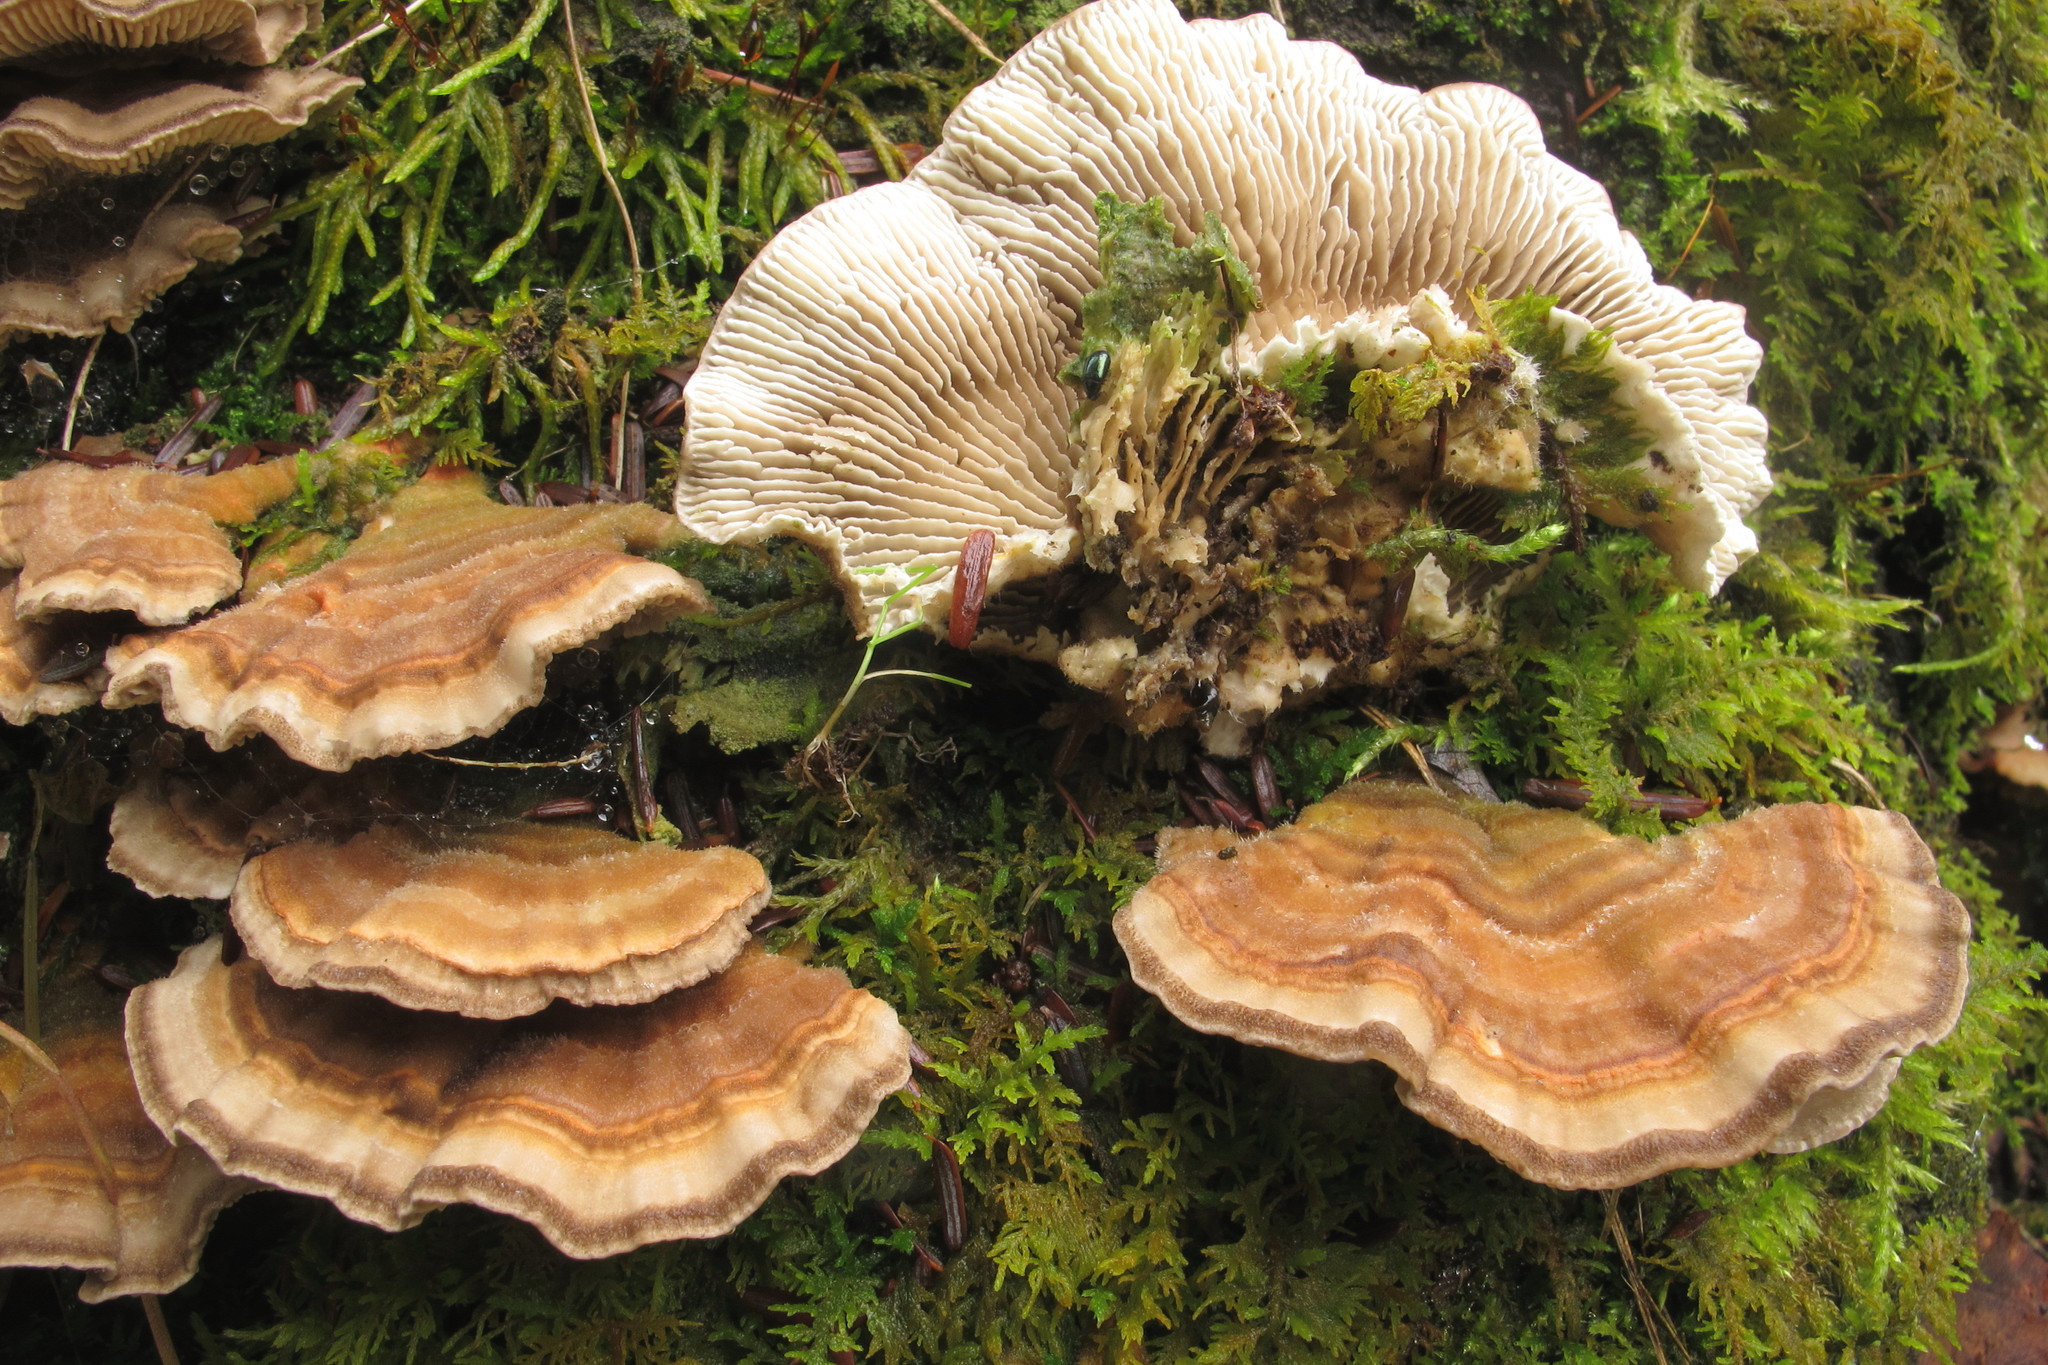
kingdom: Fungi
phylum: Basidiomycota
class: Agaricomycetes
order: Polyporales
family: Polyporaceae
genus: Lenzites
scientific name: Lenzites betulinus
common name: Birch mazegill
